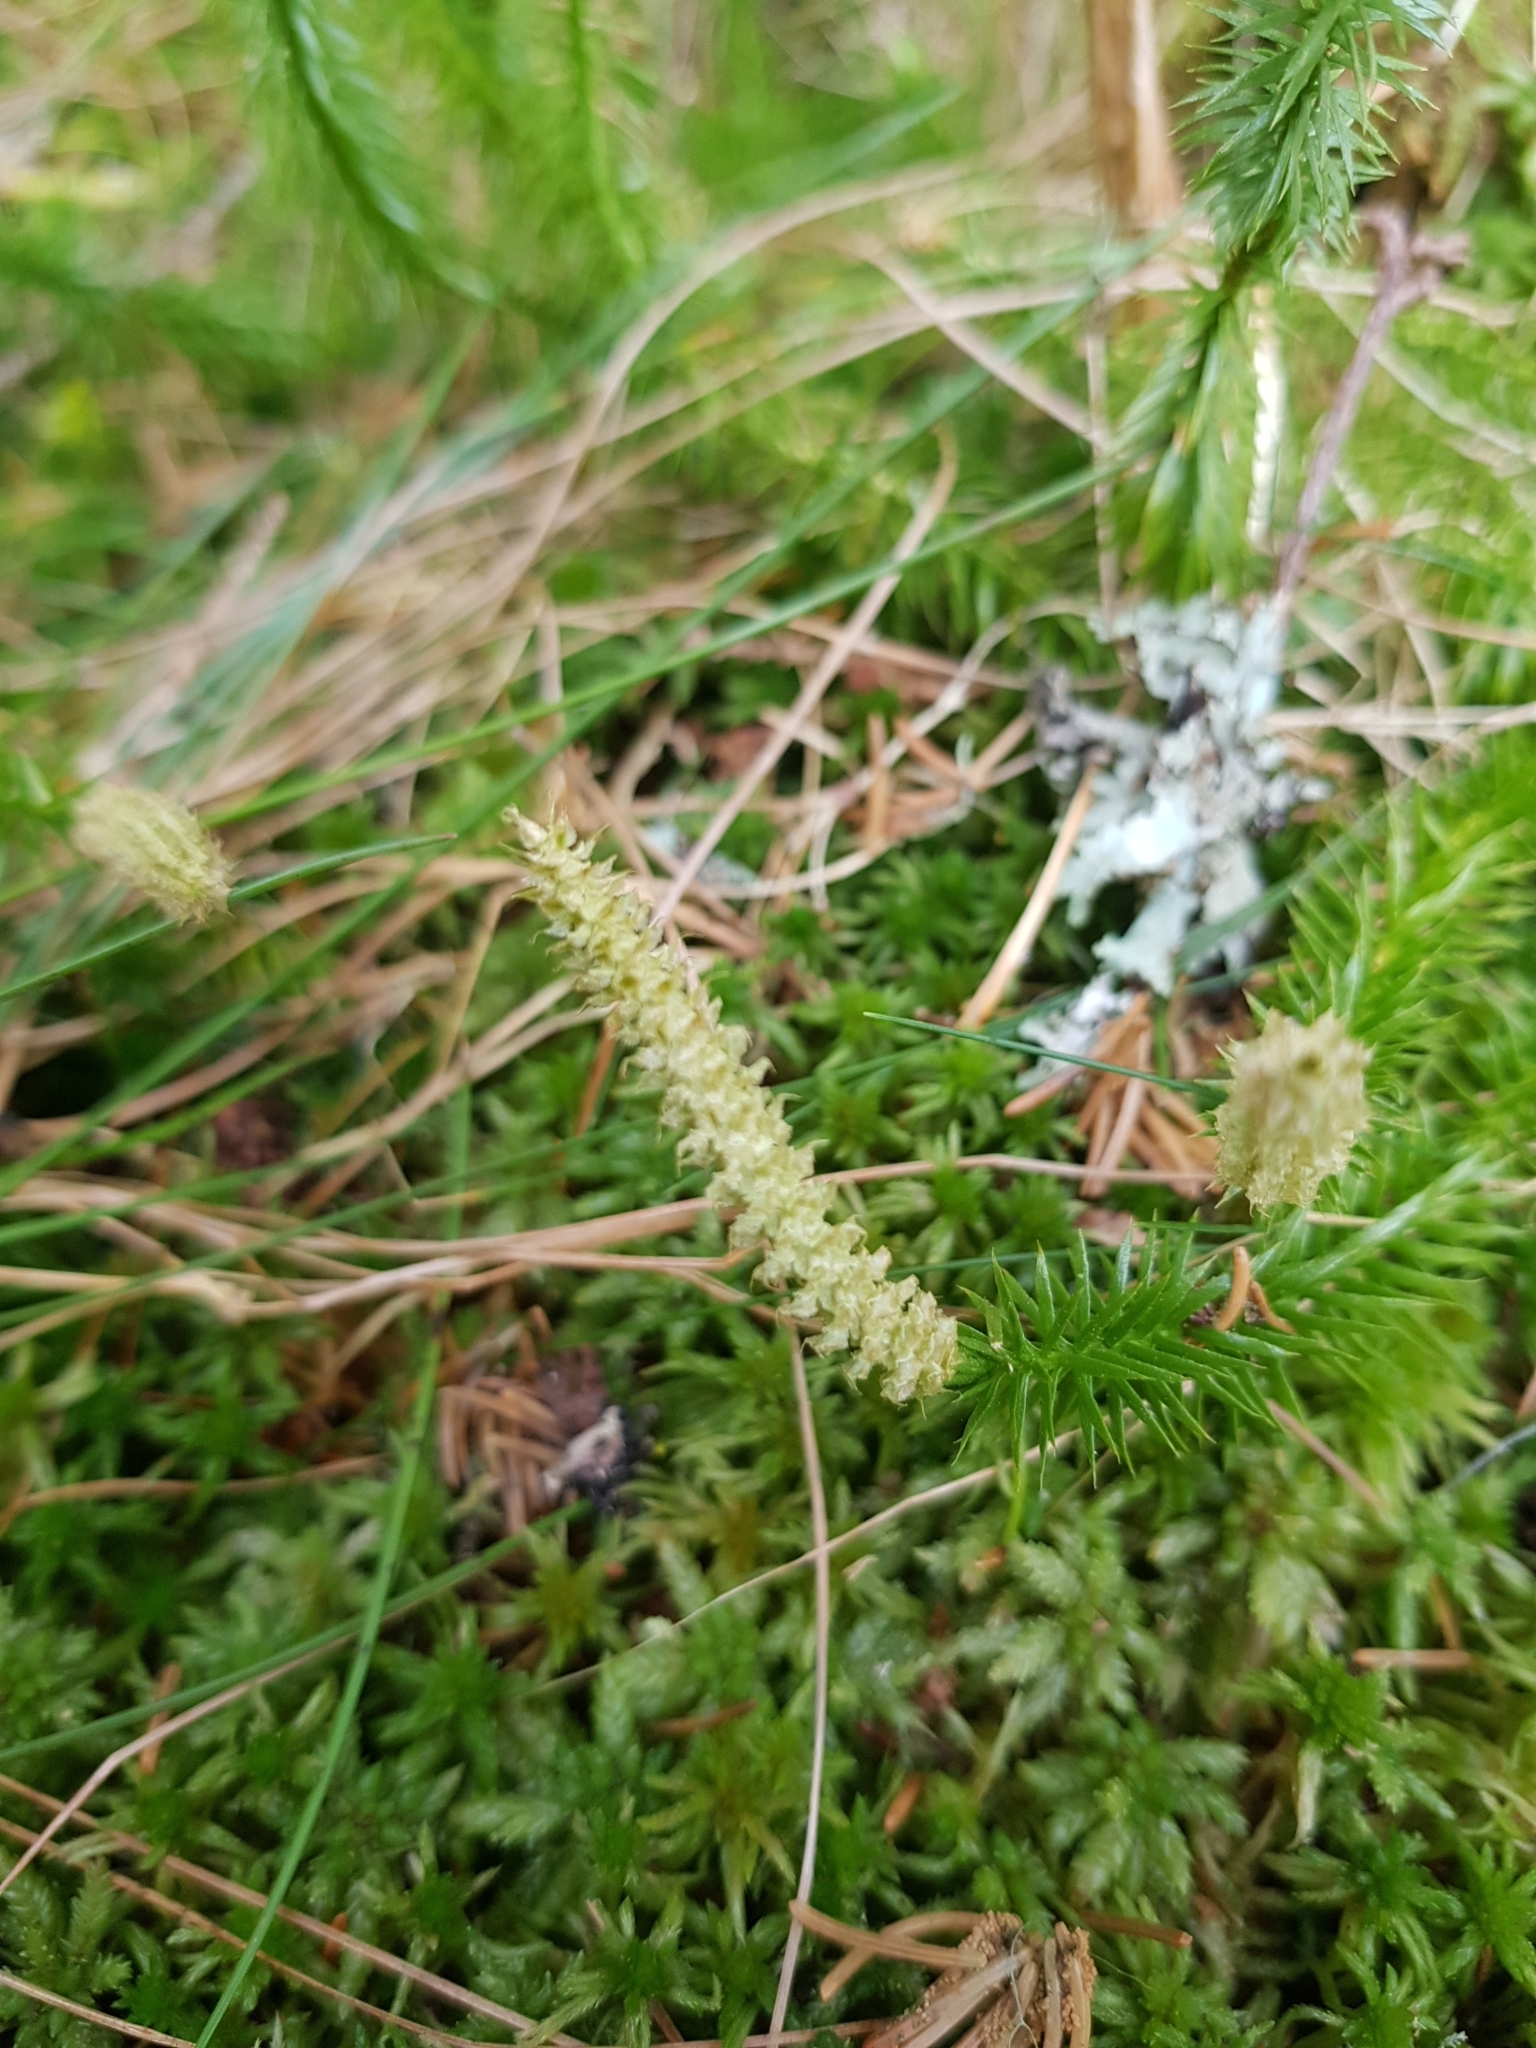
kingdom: Plantae
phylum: Tracheophyta
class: Lycopodiopsida
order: Lycopodiales
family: Lycopodiaceae
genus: Spinulum
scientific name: Spinulum annotinum
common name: Interrupted club-moss
